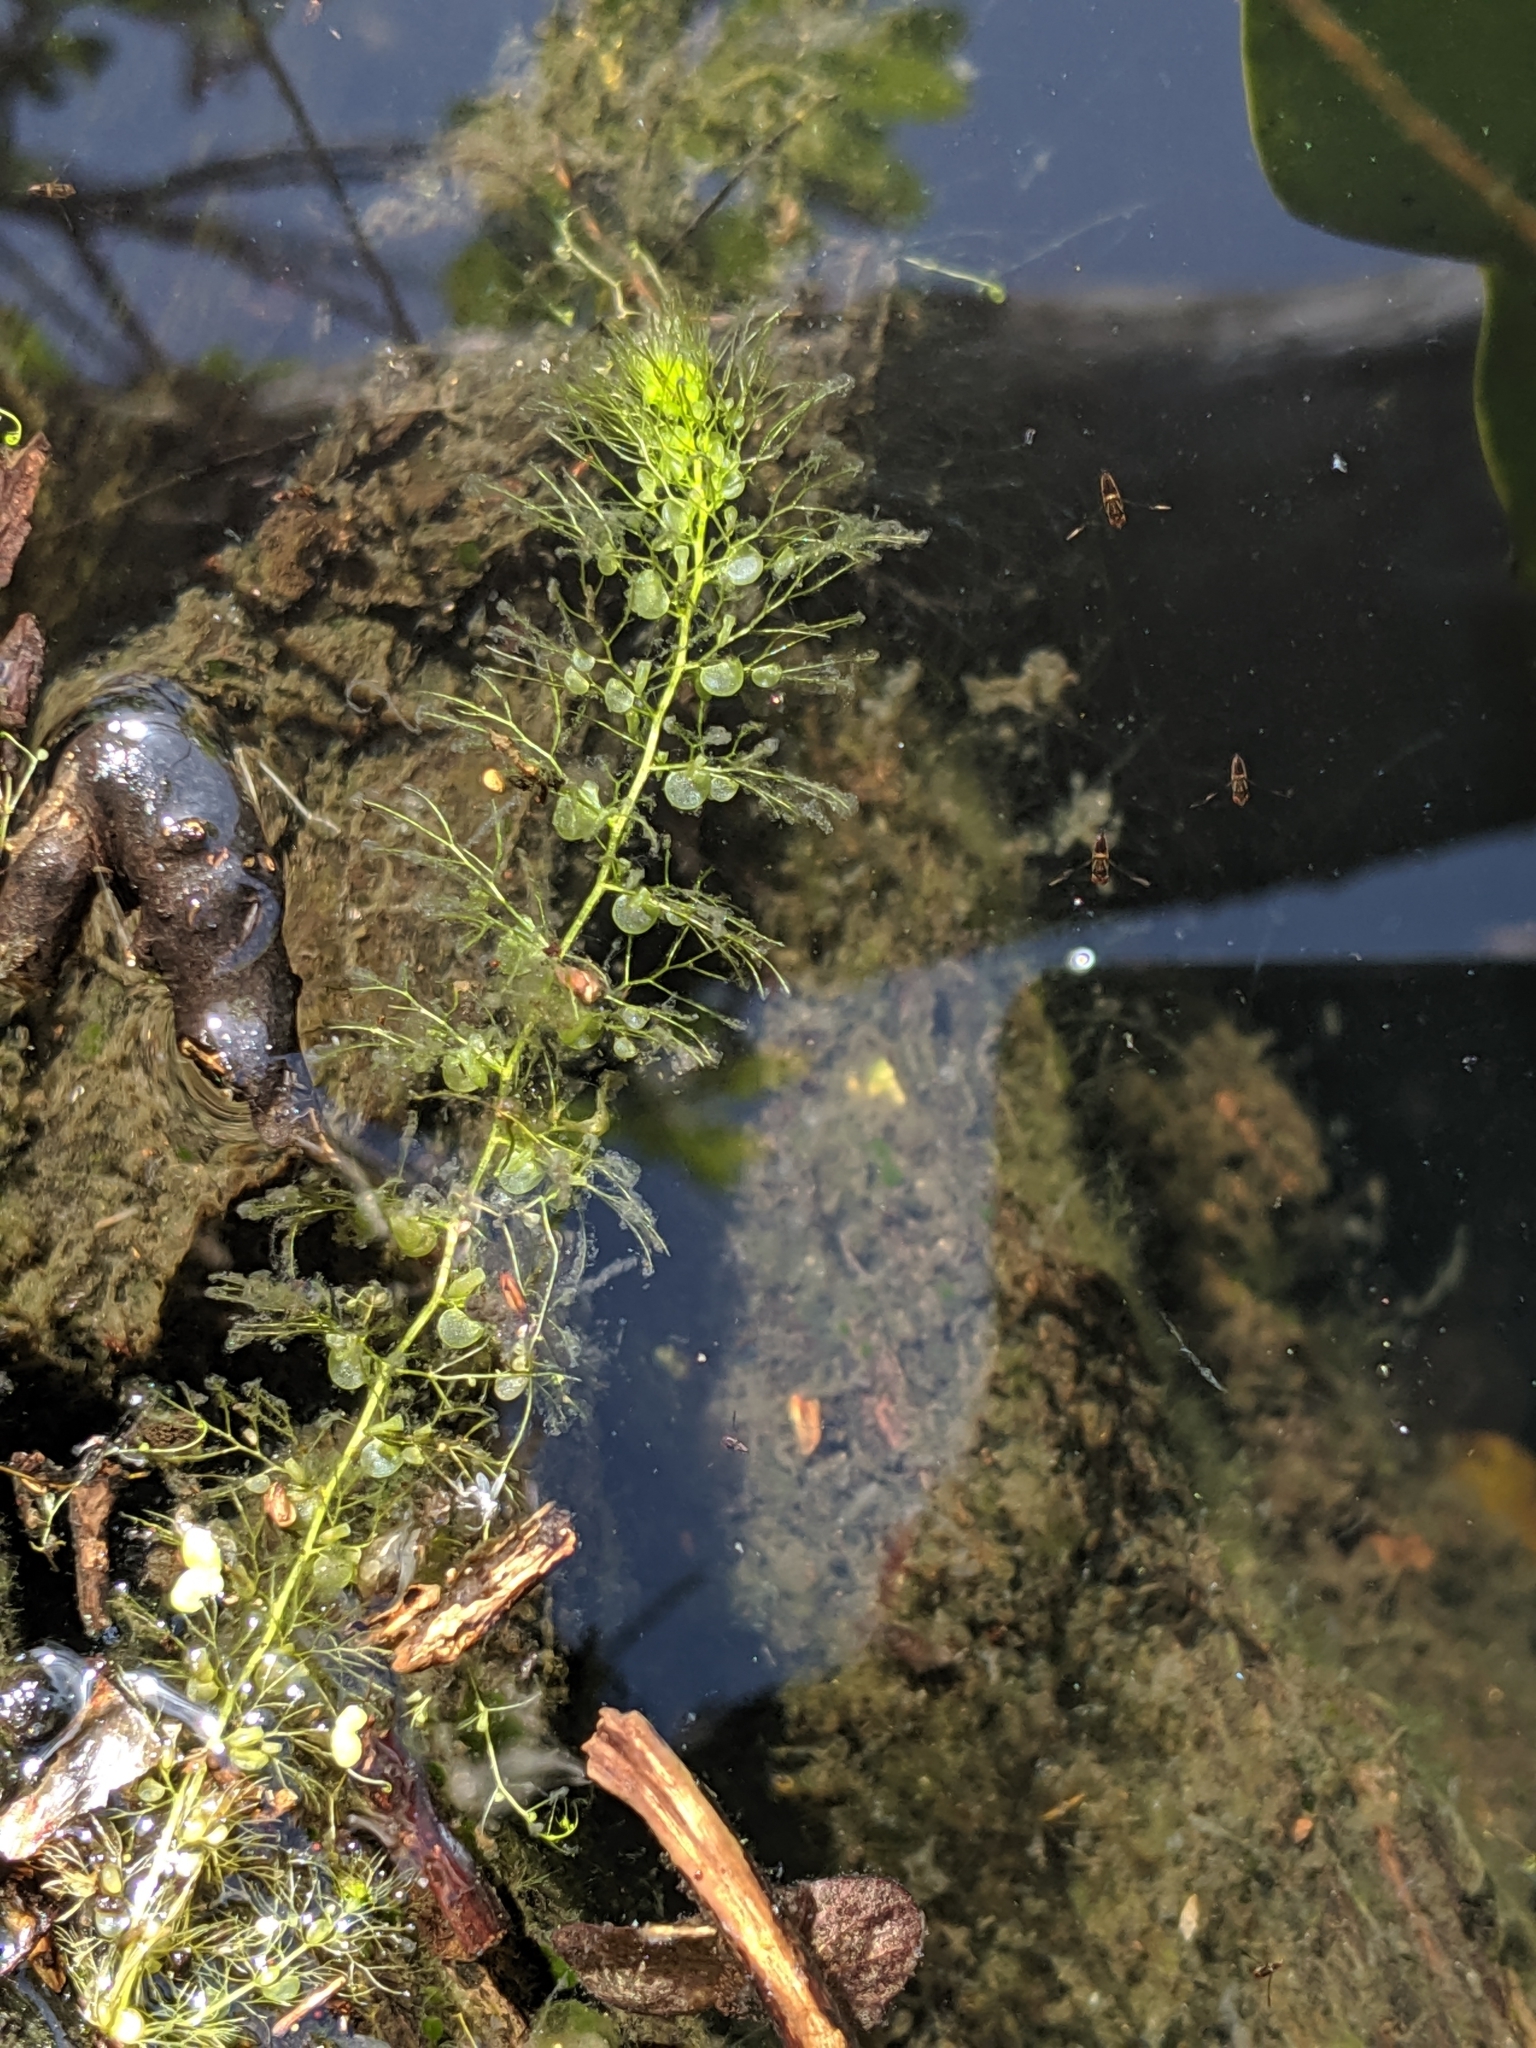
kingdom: Plantae
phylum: Tracheophyta
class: Magnoliopsida
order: Lamiales
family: Lentibulariaceae
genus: Utricularia
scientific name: Utricularia macrorhiza
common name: Common bladderwort
